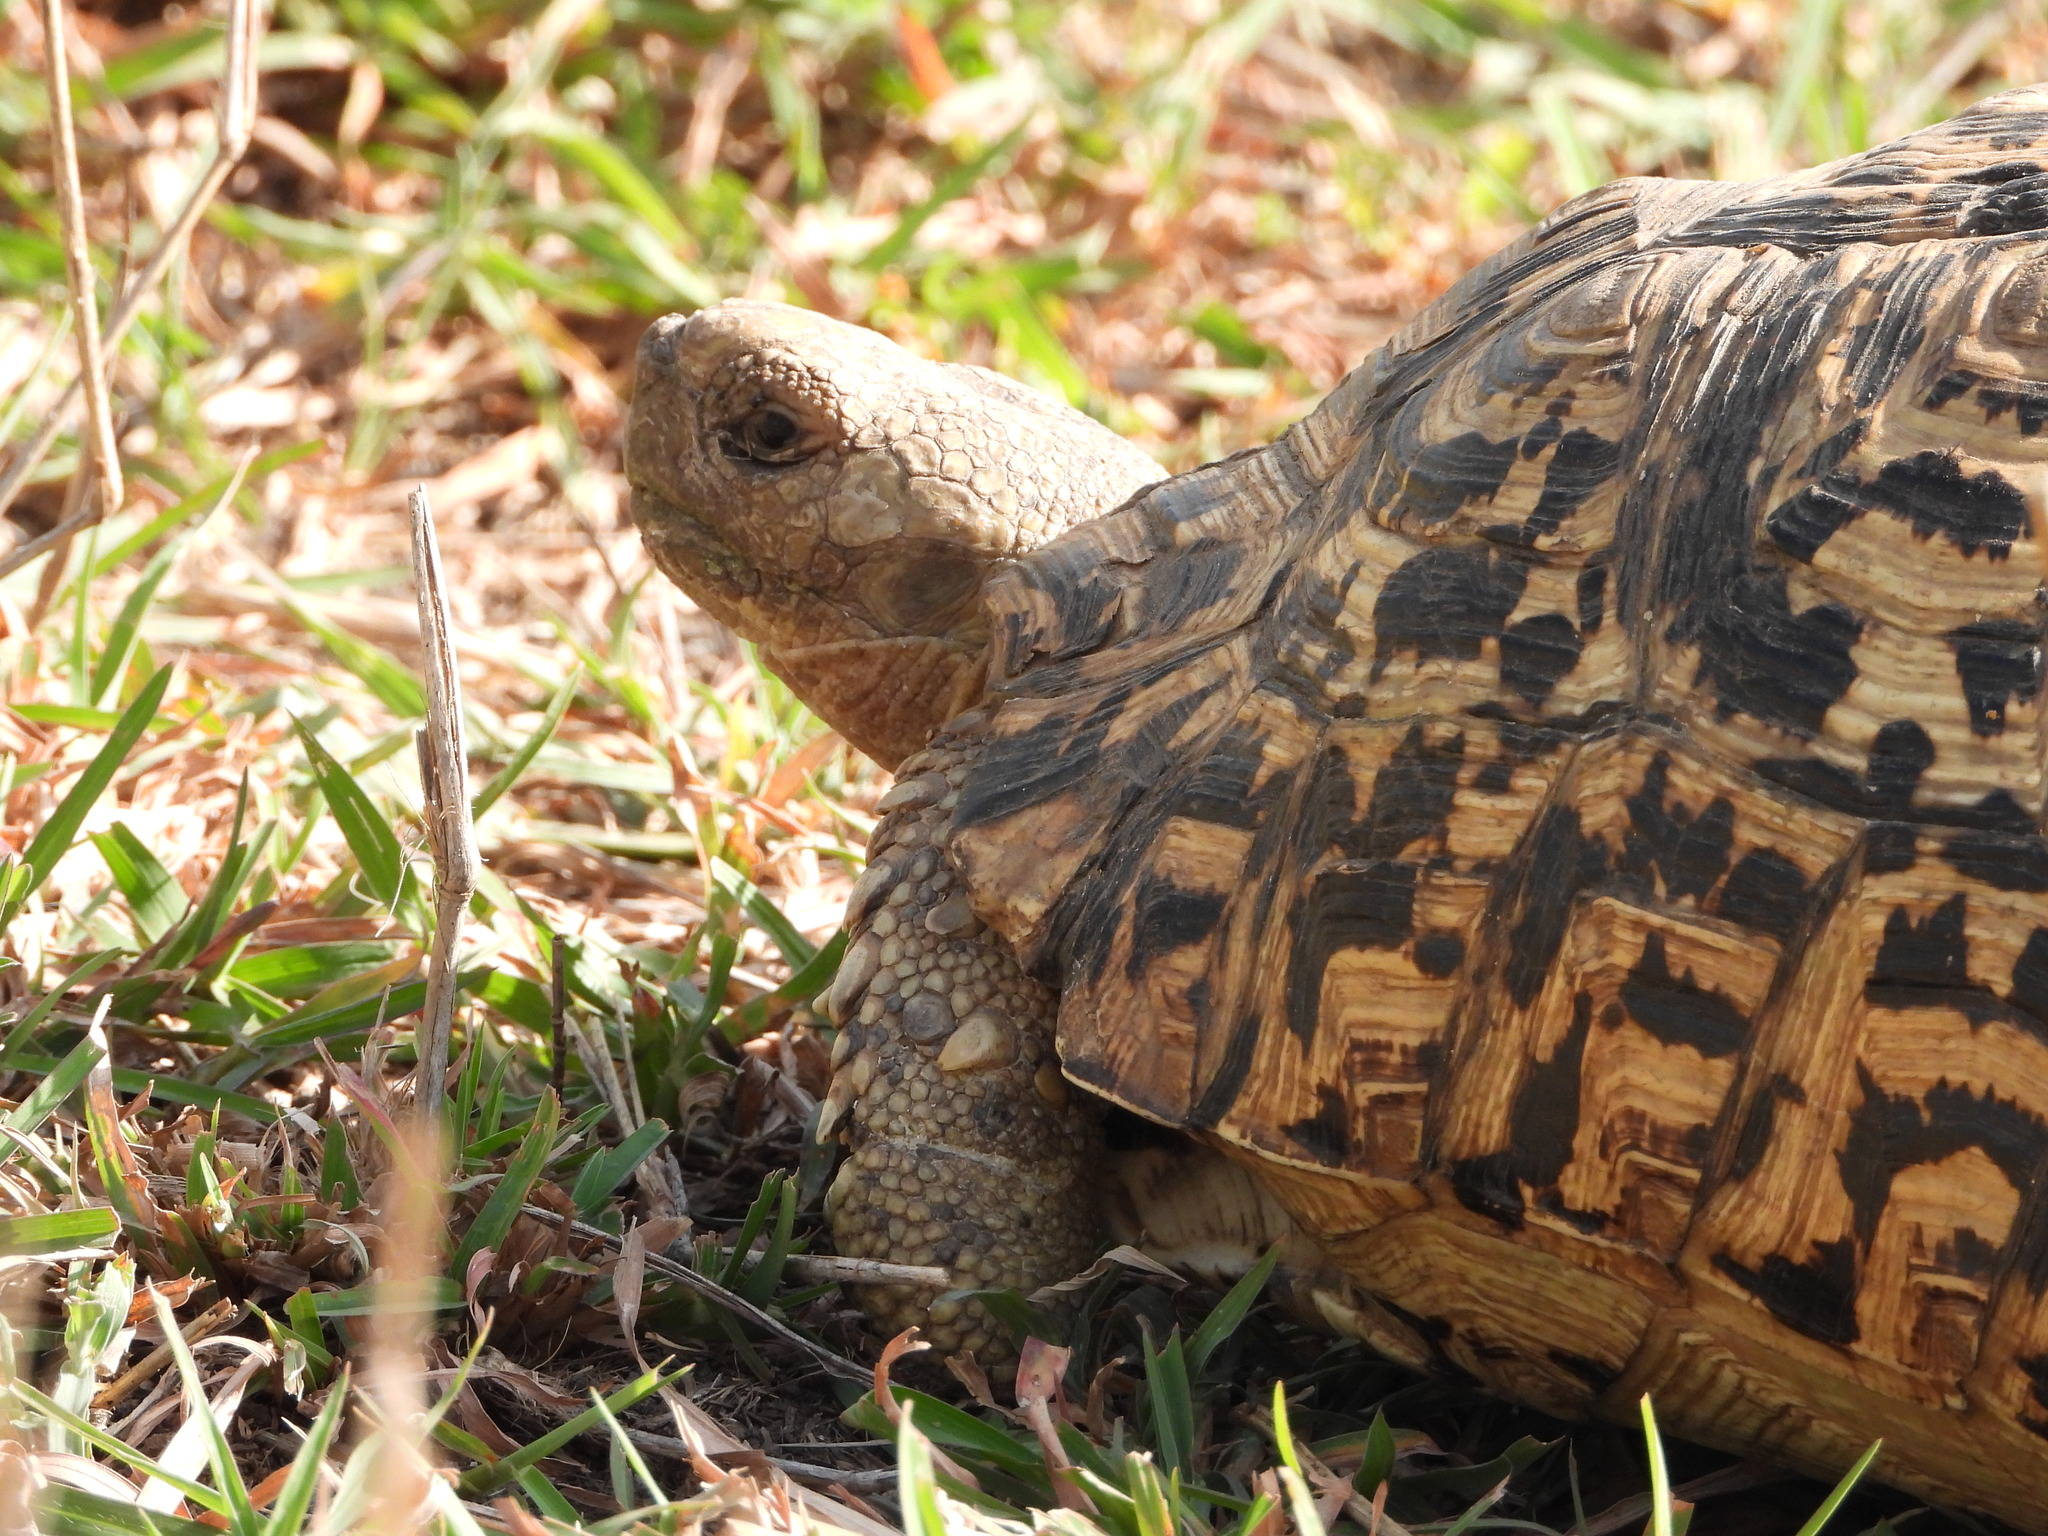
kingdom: Animalia
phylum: Chordata
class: Testudines
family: Testudinidae
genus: Stigmochelys
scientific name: Stigmochelys pardalis
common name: Leopard tortoise
